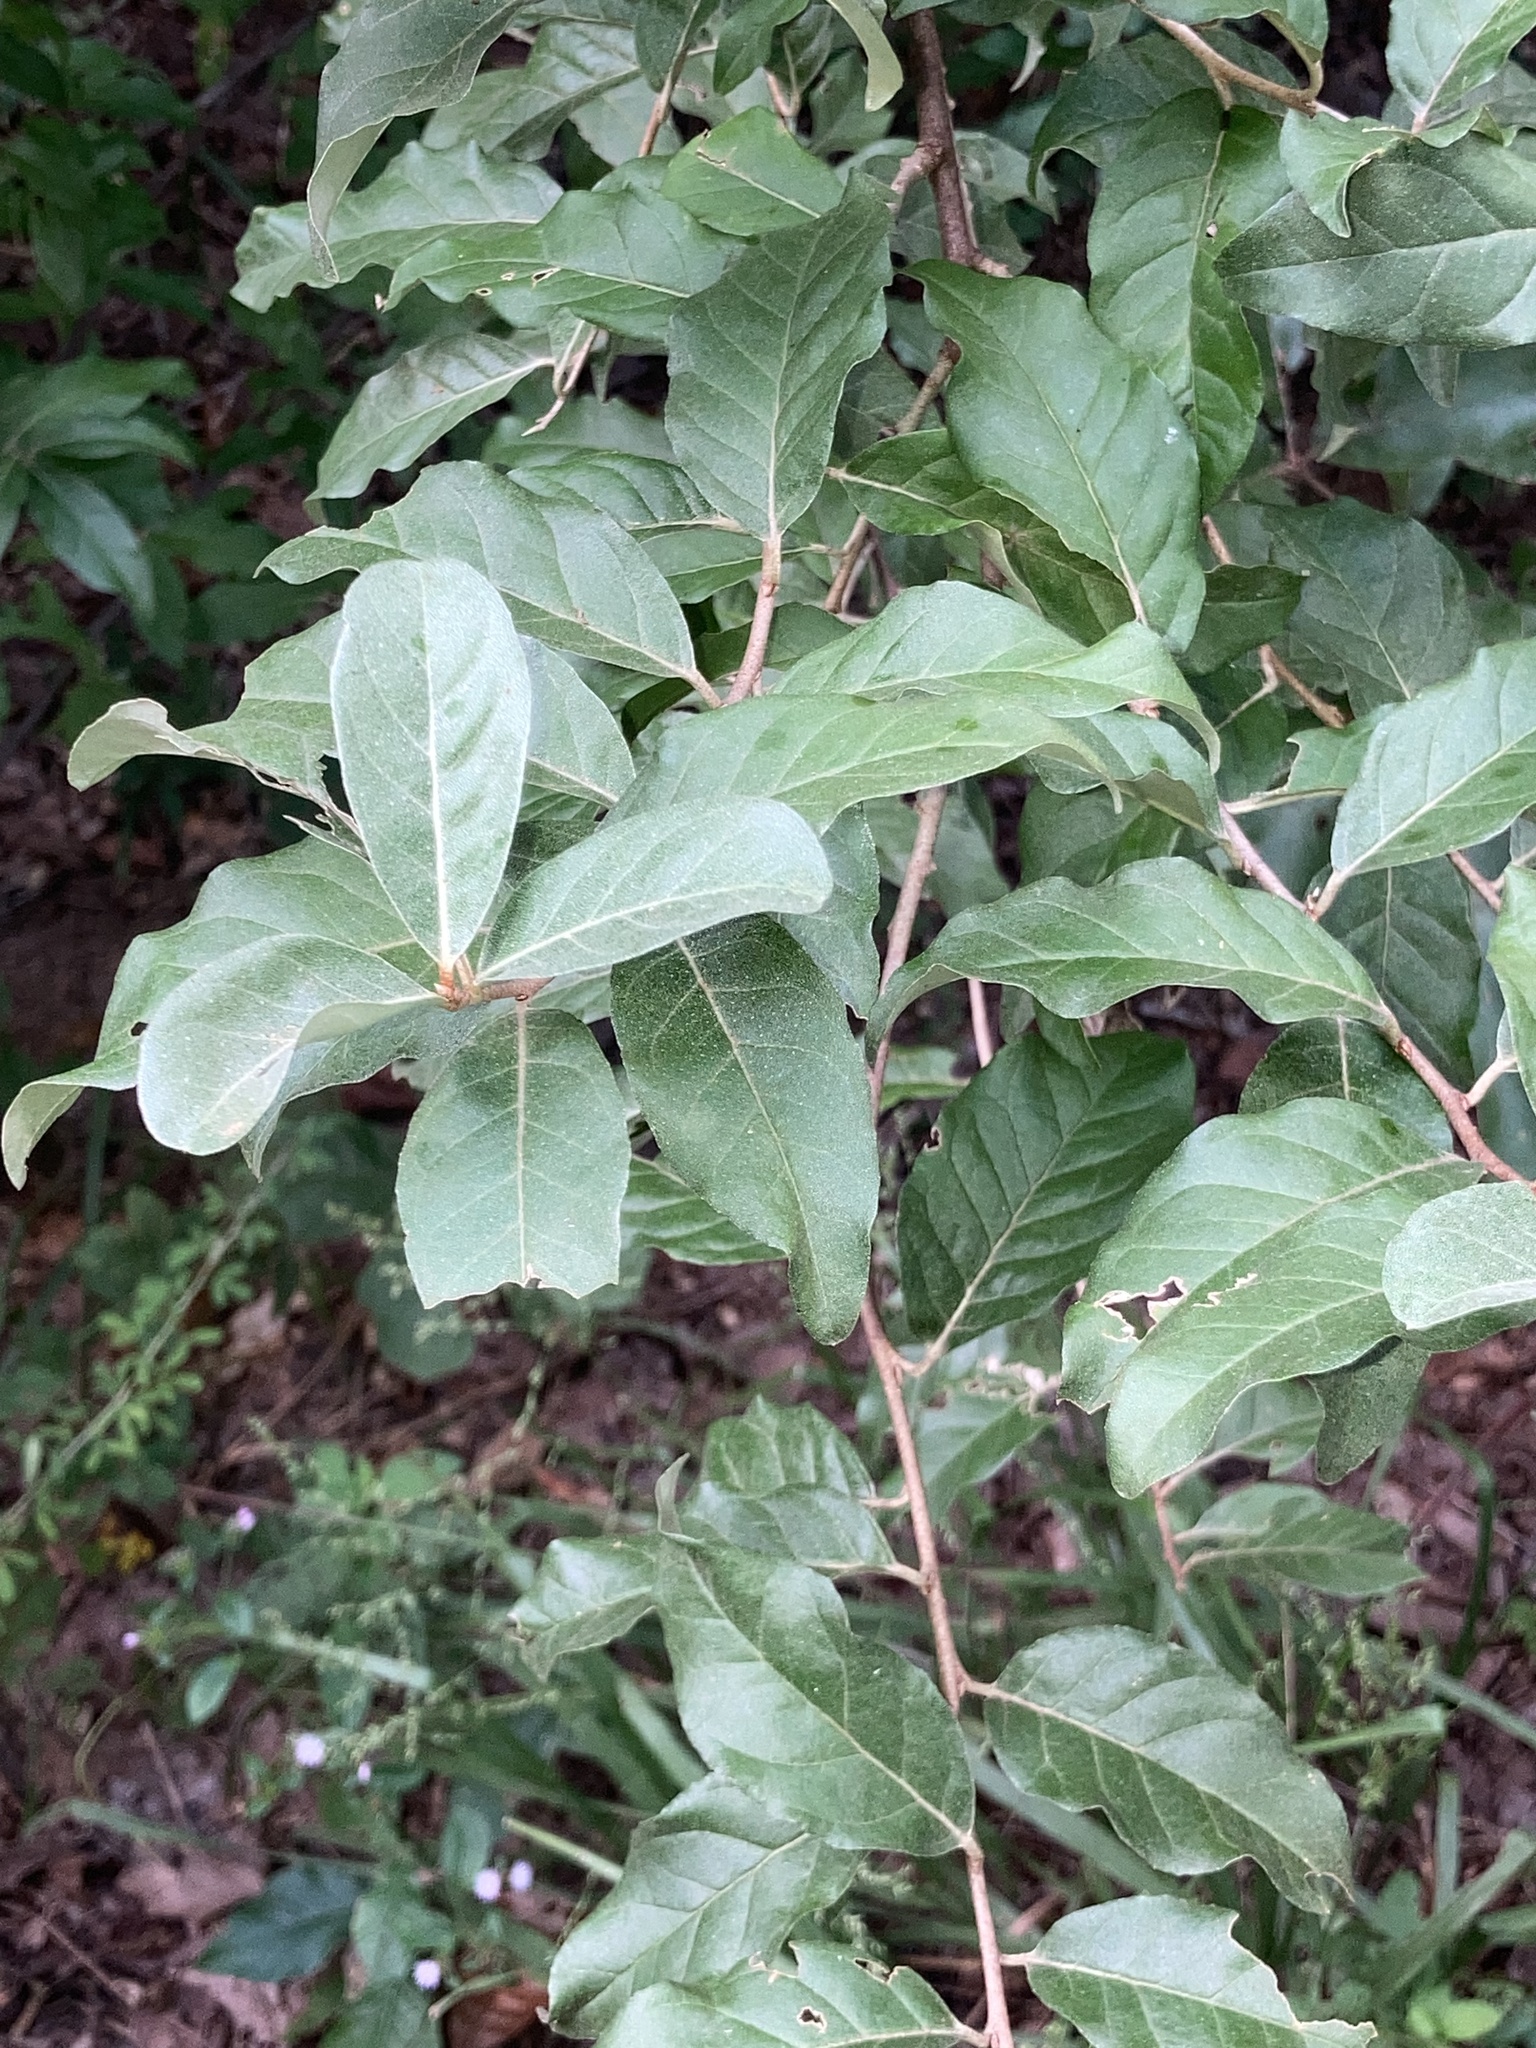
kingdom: Plantae
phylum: Tracheophyta
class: Magnoliopsida
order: Rosales
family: Elaeagnaceae
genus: Elaeagnus
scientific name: Elaeagnus umbellata
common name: Autumn olive
